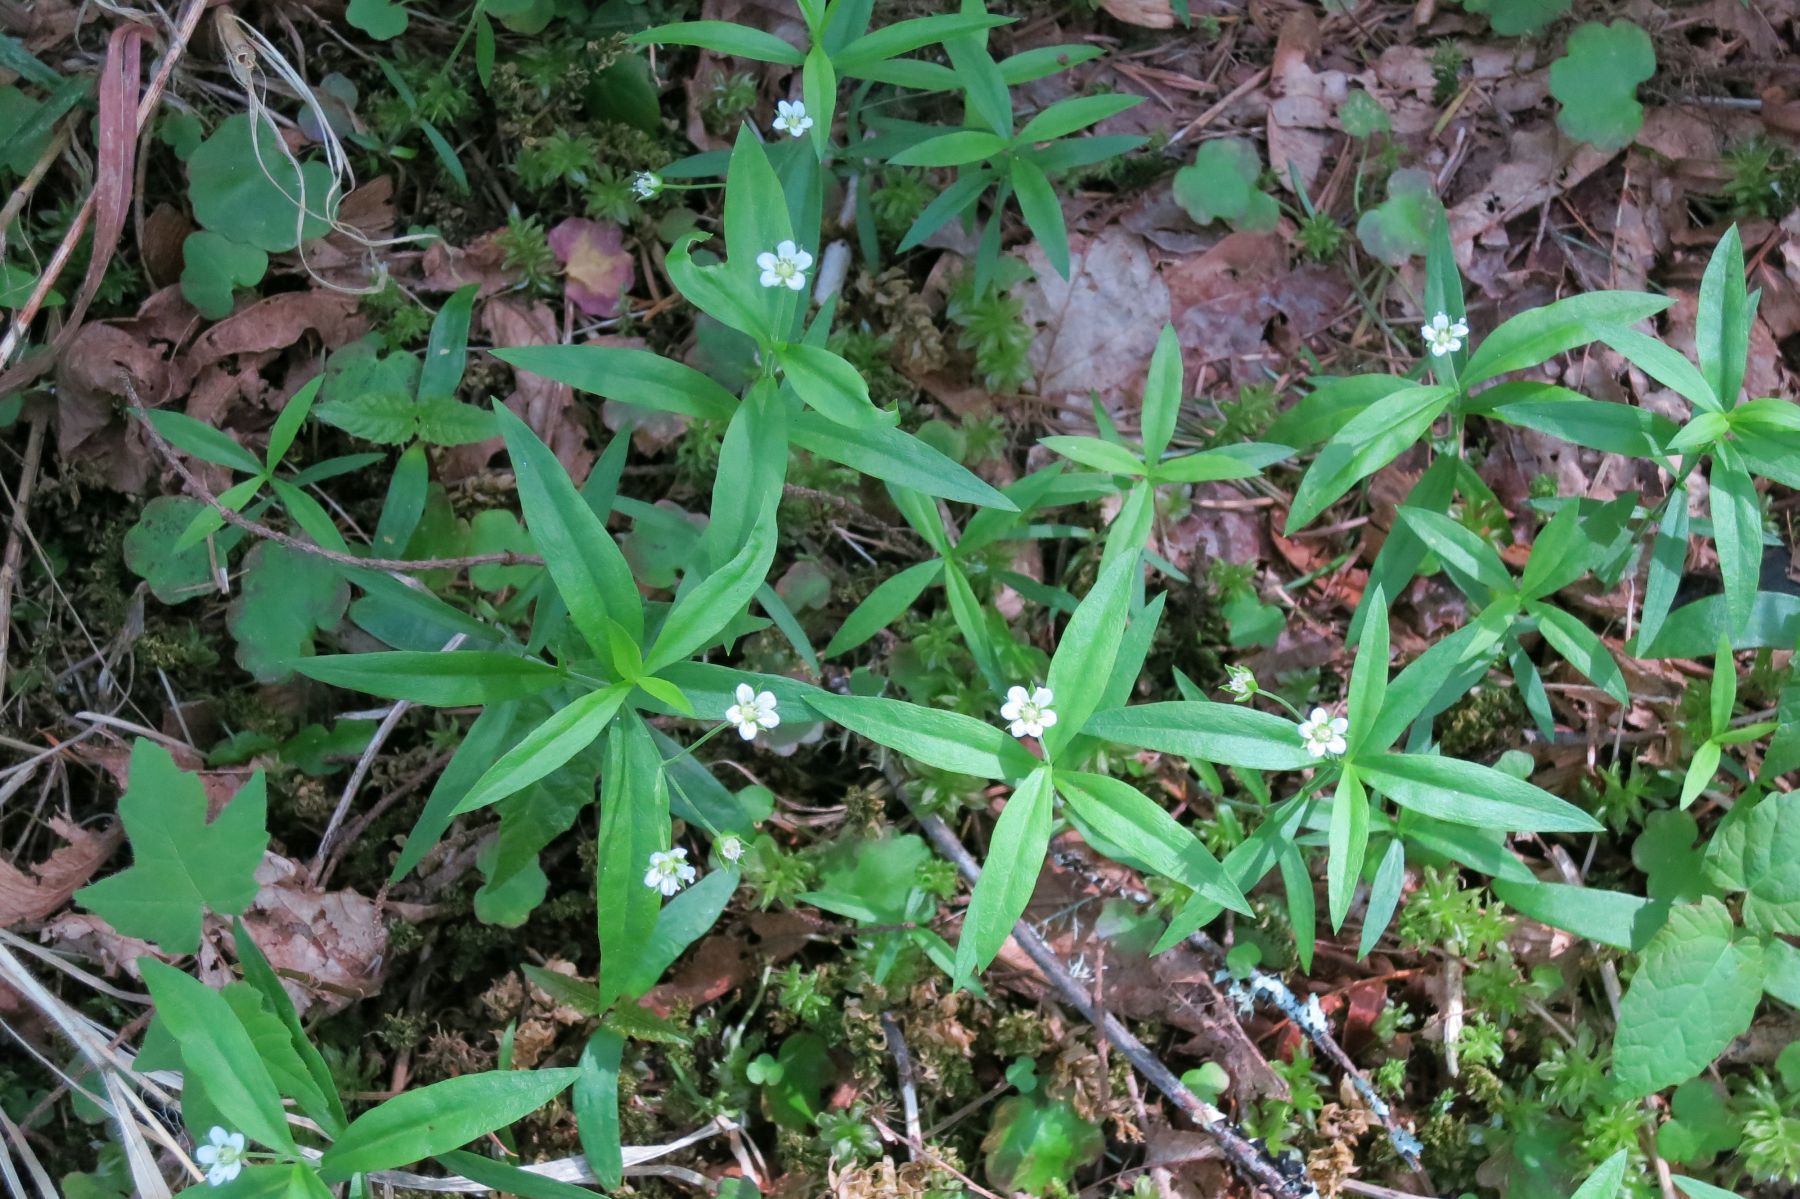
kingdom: Plantae
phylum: Tracheophyta
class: Magnoliopsida
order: Caryophyllales
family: Caryophyllaceae
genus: Moehringia
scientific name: Moehringia macrophylla
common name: Big-leaf sandwort
